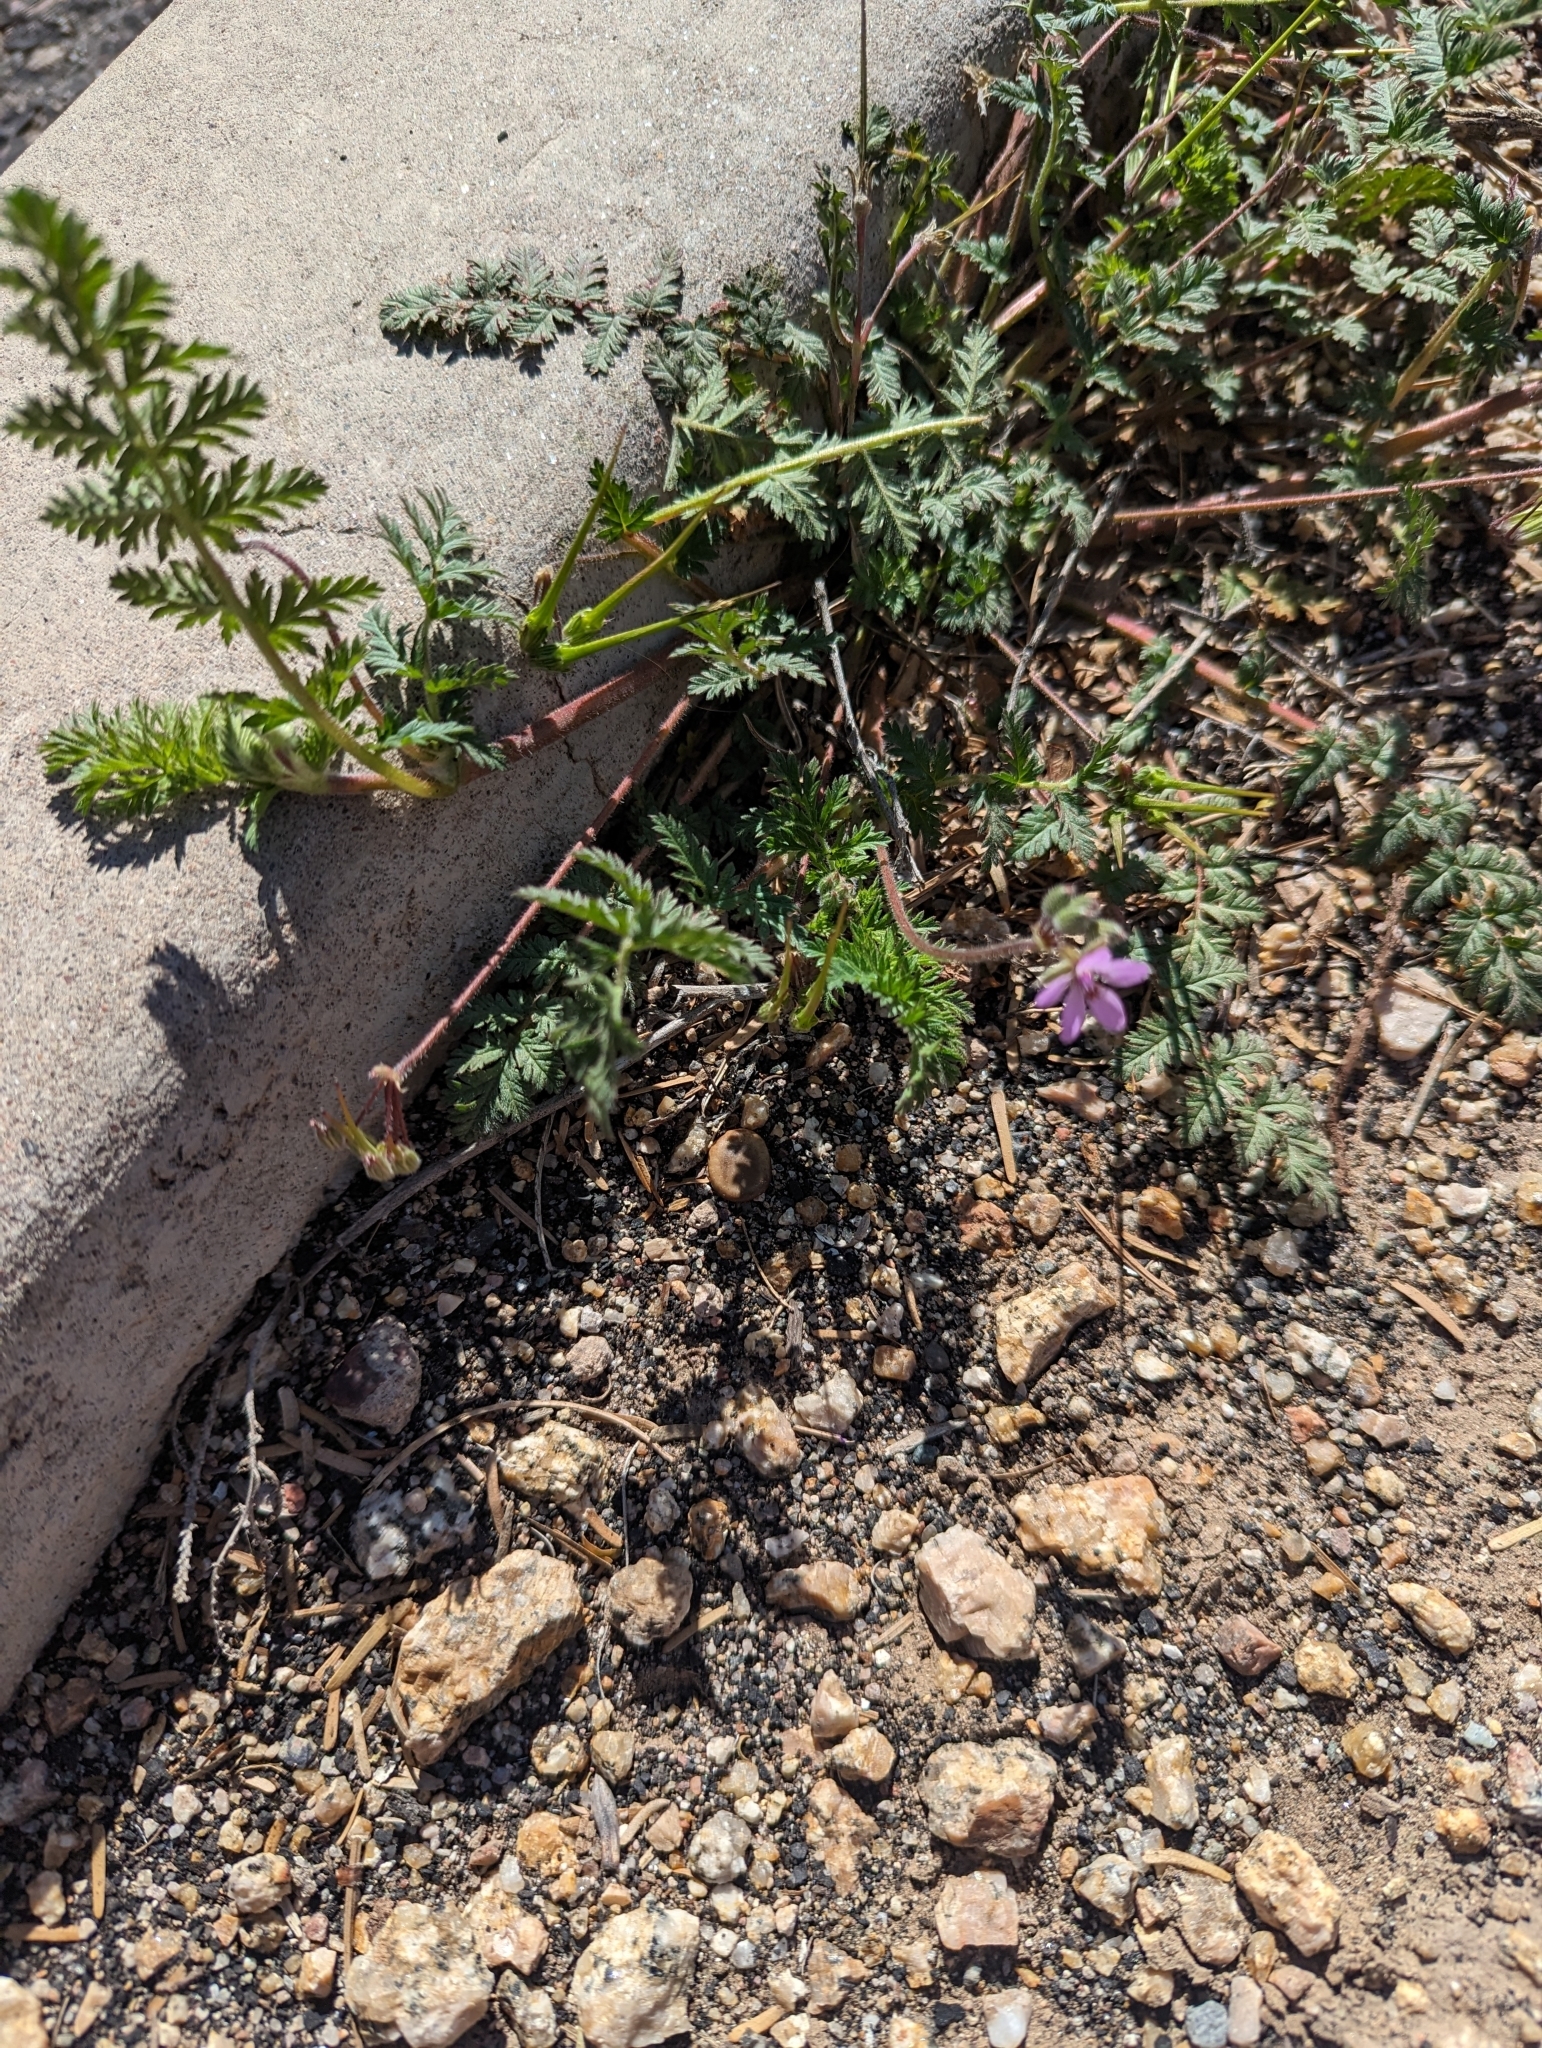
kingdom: Plantae
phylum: Tracheophyta
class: Magnoliopsida
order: Geraniales
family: Geraniaceae
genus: Erodium
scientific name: Erodium cicutarium
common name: Common stork's-bill
